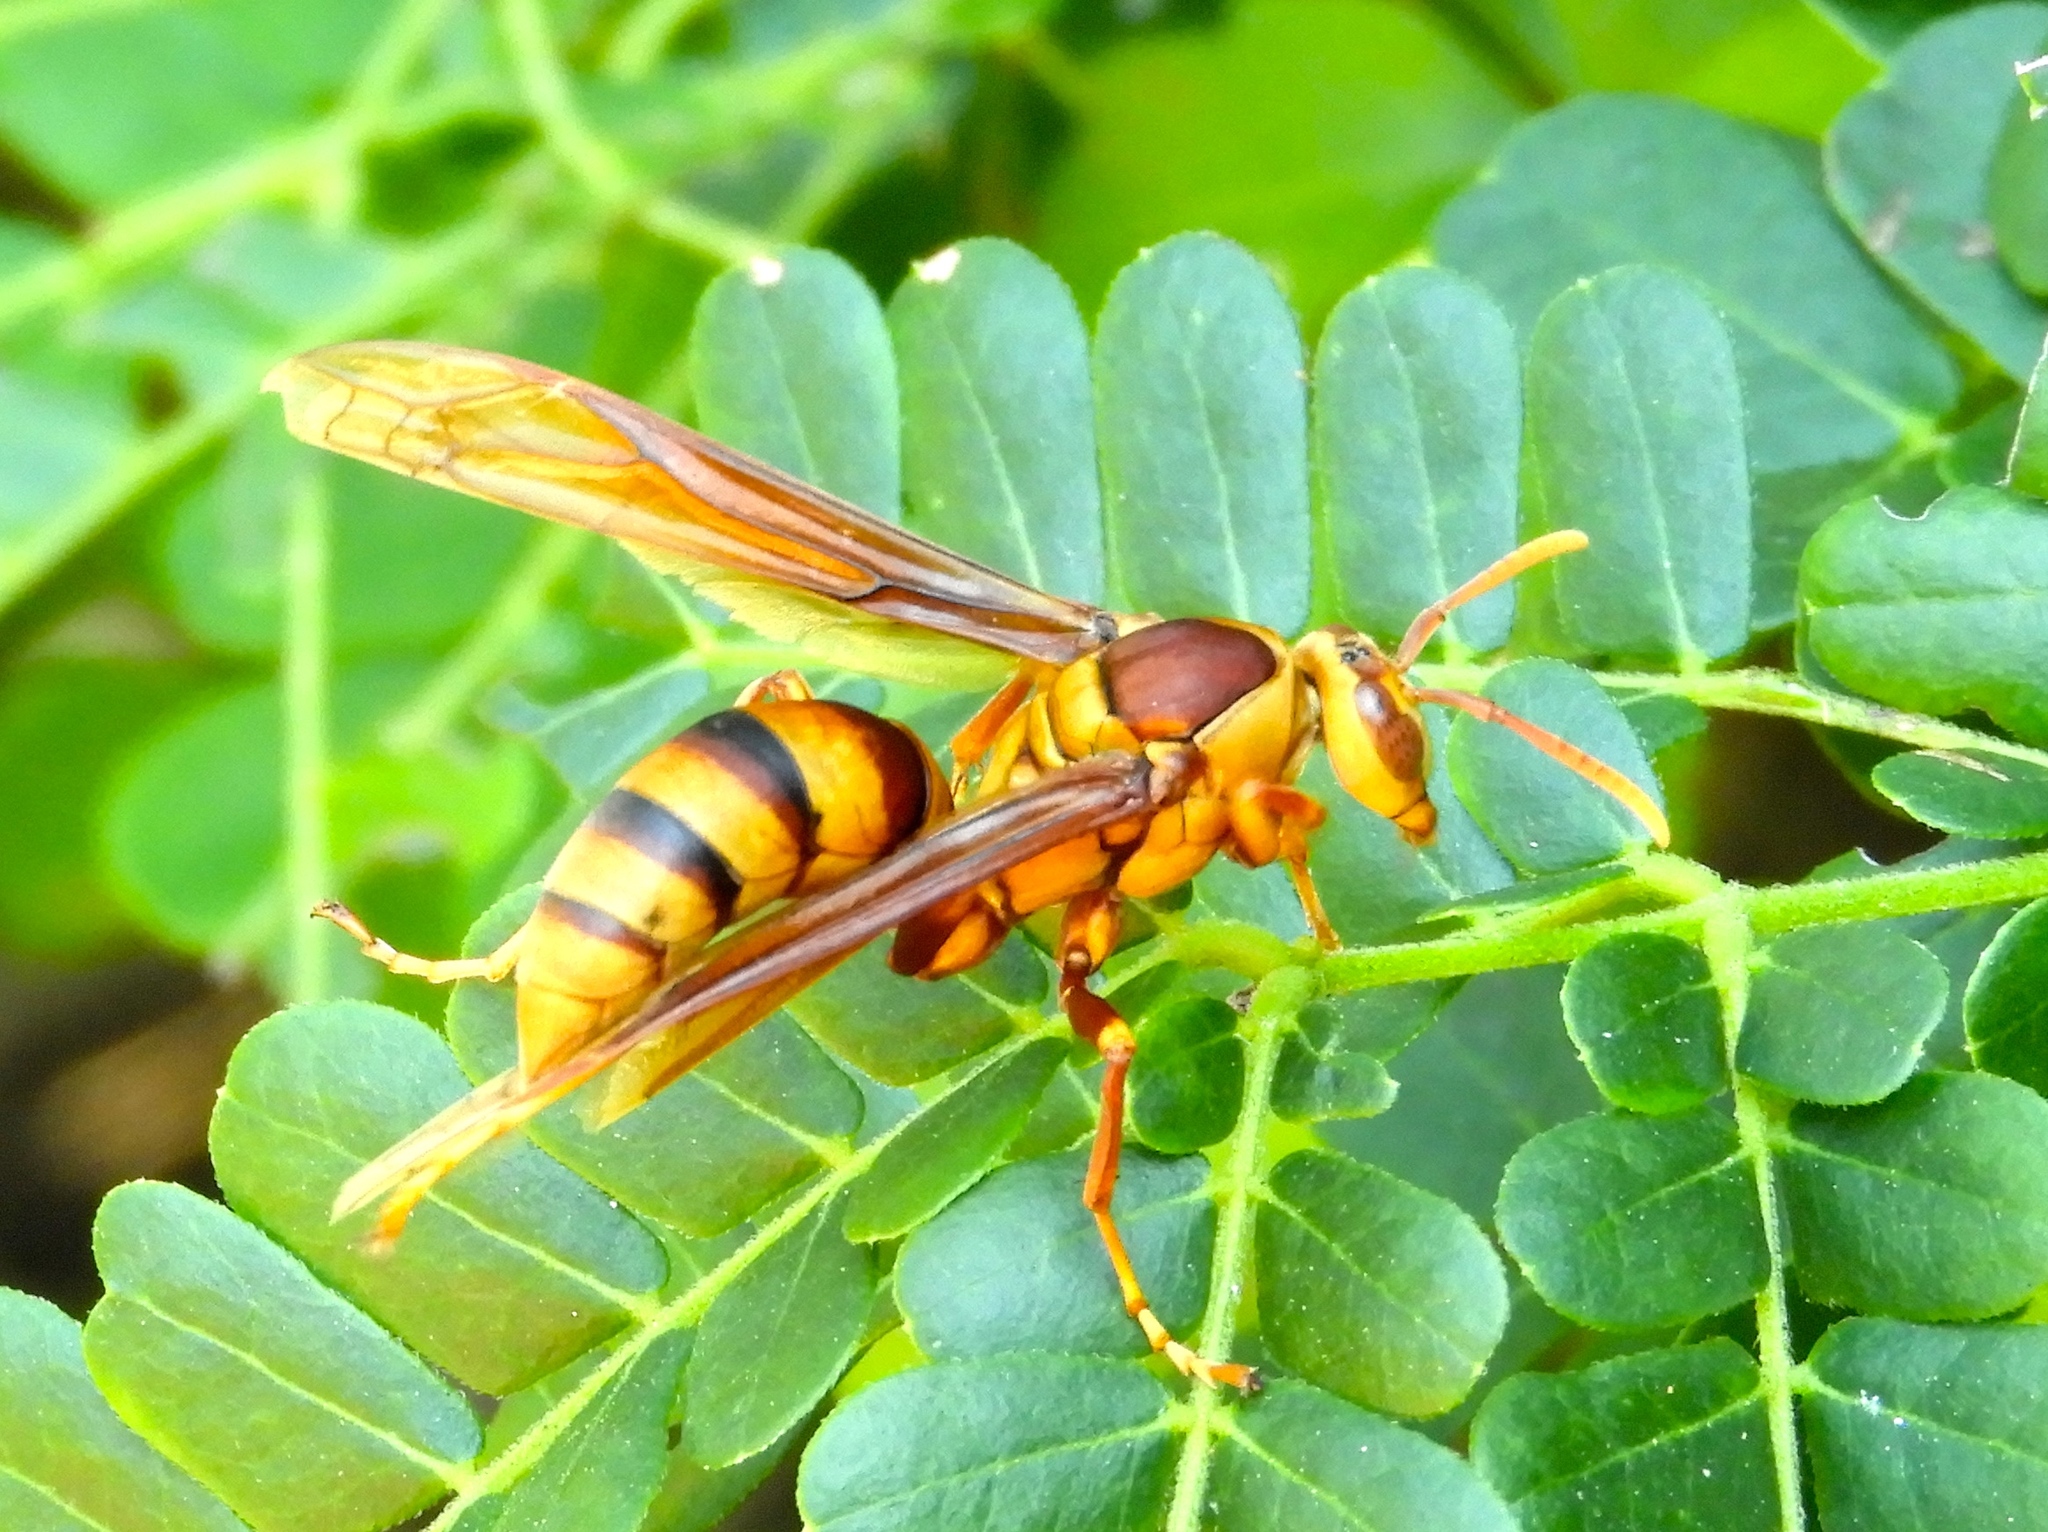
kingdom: Animalia
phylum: Arthropoda
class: Insecta
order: Hymenoptera
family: Eumenidae
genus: Polistes
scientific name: Polistes major
